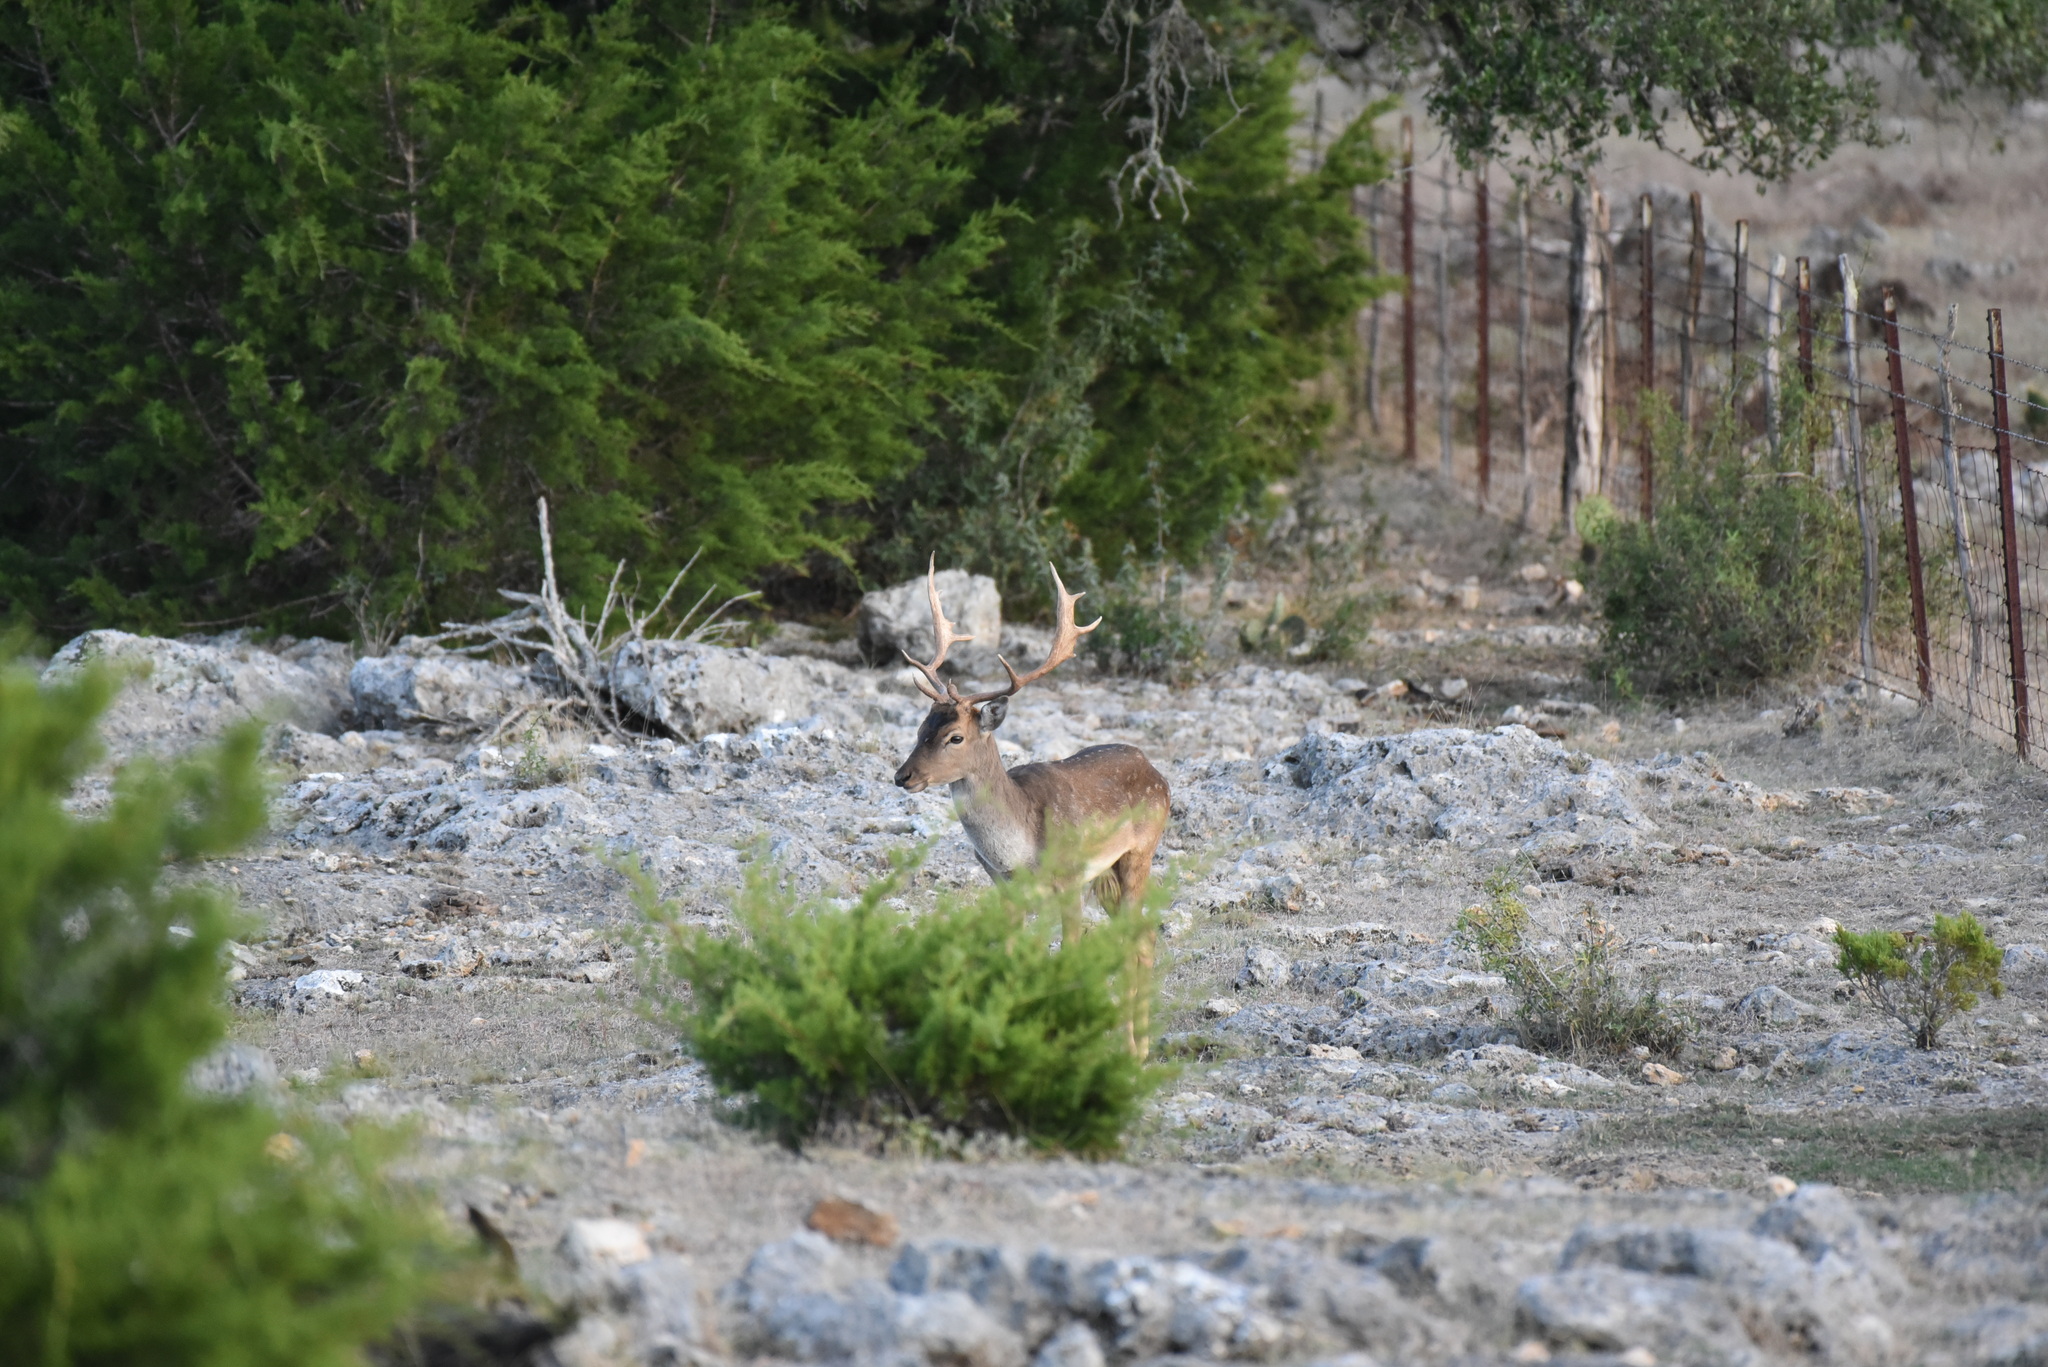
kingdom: Animalia
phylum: Chordata
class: Mammalia
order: Artiodactyla
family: Cervidae
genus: Dama
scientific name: Dama dama
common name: Fallow deer
